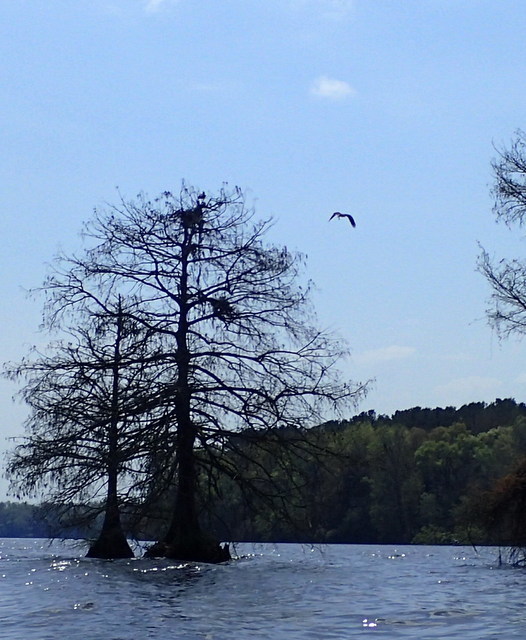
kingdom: Animalia
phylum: Chordata
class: Aves
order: Accipitriformes
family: Pandionidae
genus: Pandion
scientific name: Pandion haliaetus
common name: Osprey
